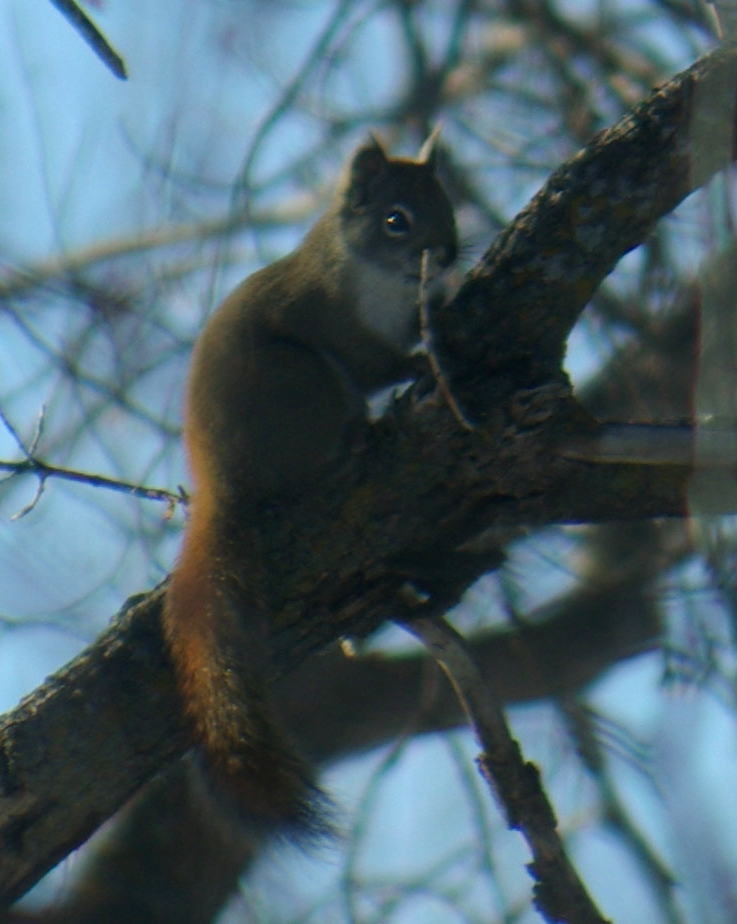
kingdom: Animalia
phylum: Chordata
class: Mammalia
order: Rodentia
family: Sciuridae
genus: Tamiasciurus
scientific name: Tamiasciurus hudsonicus
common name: Red squirrel
